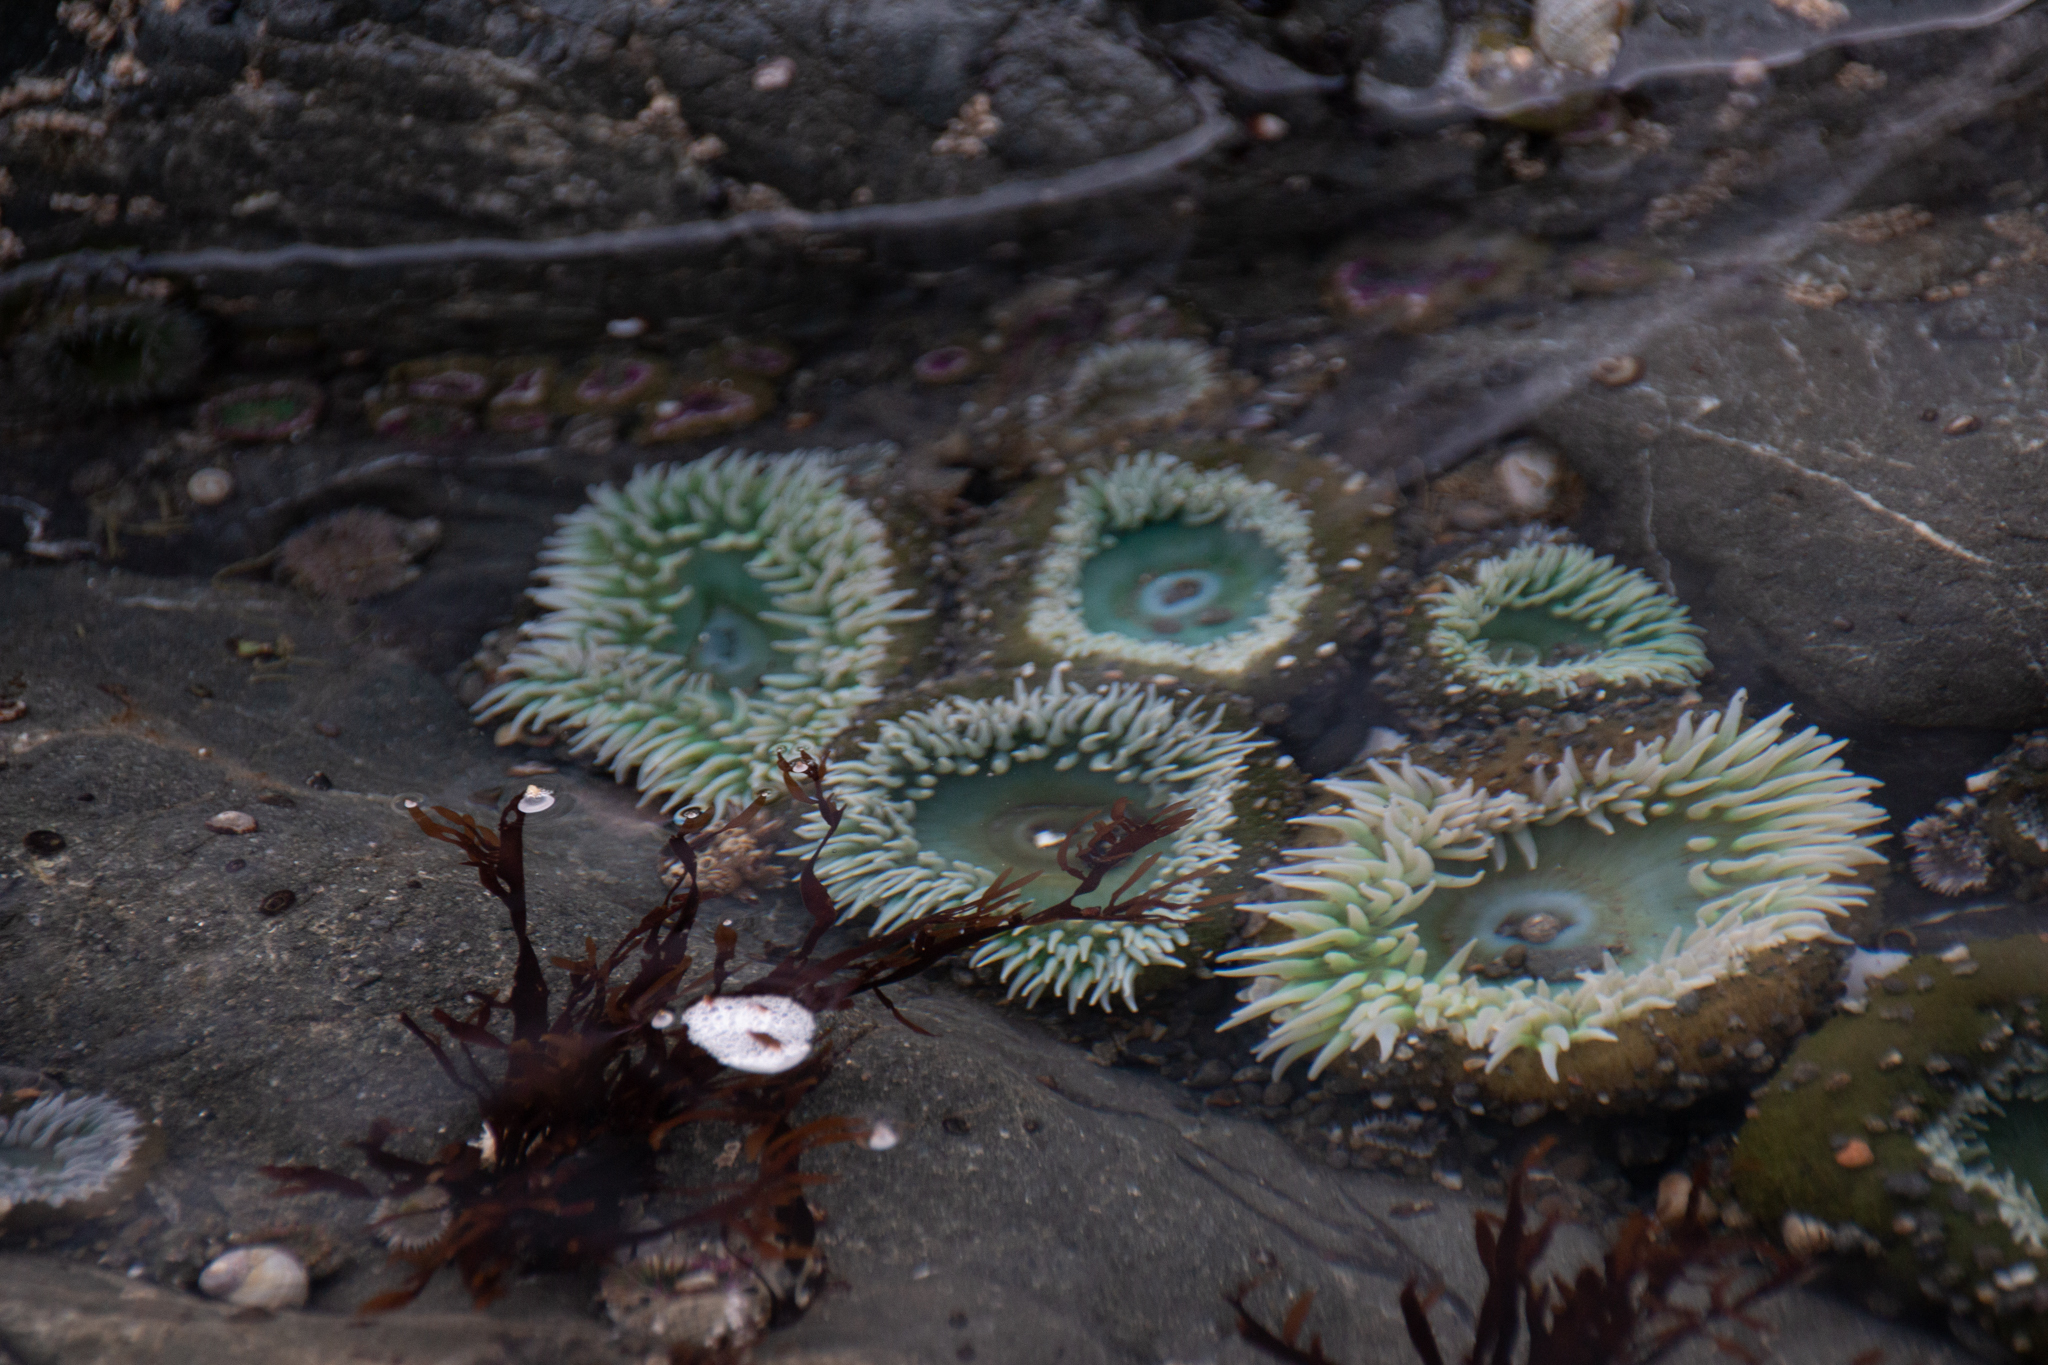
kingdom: Animalia
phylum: Cnidaria
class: Anthozoa
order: Actiniaria
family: Actiniidae
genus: Anthopleura
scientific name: Anthopleura xanthogrammica
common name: Giant green anemone
